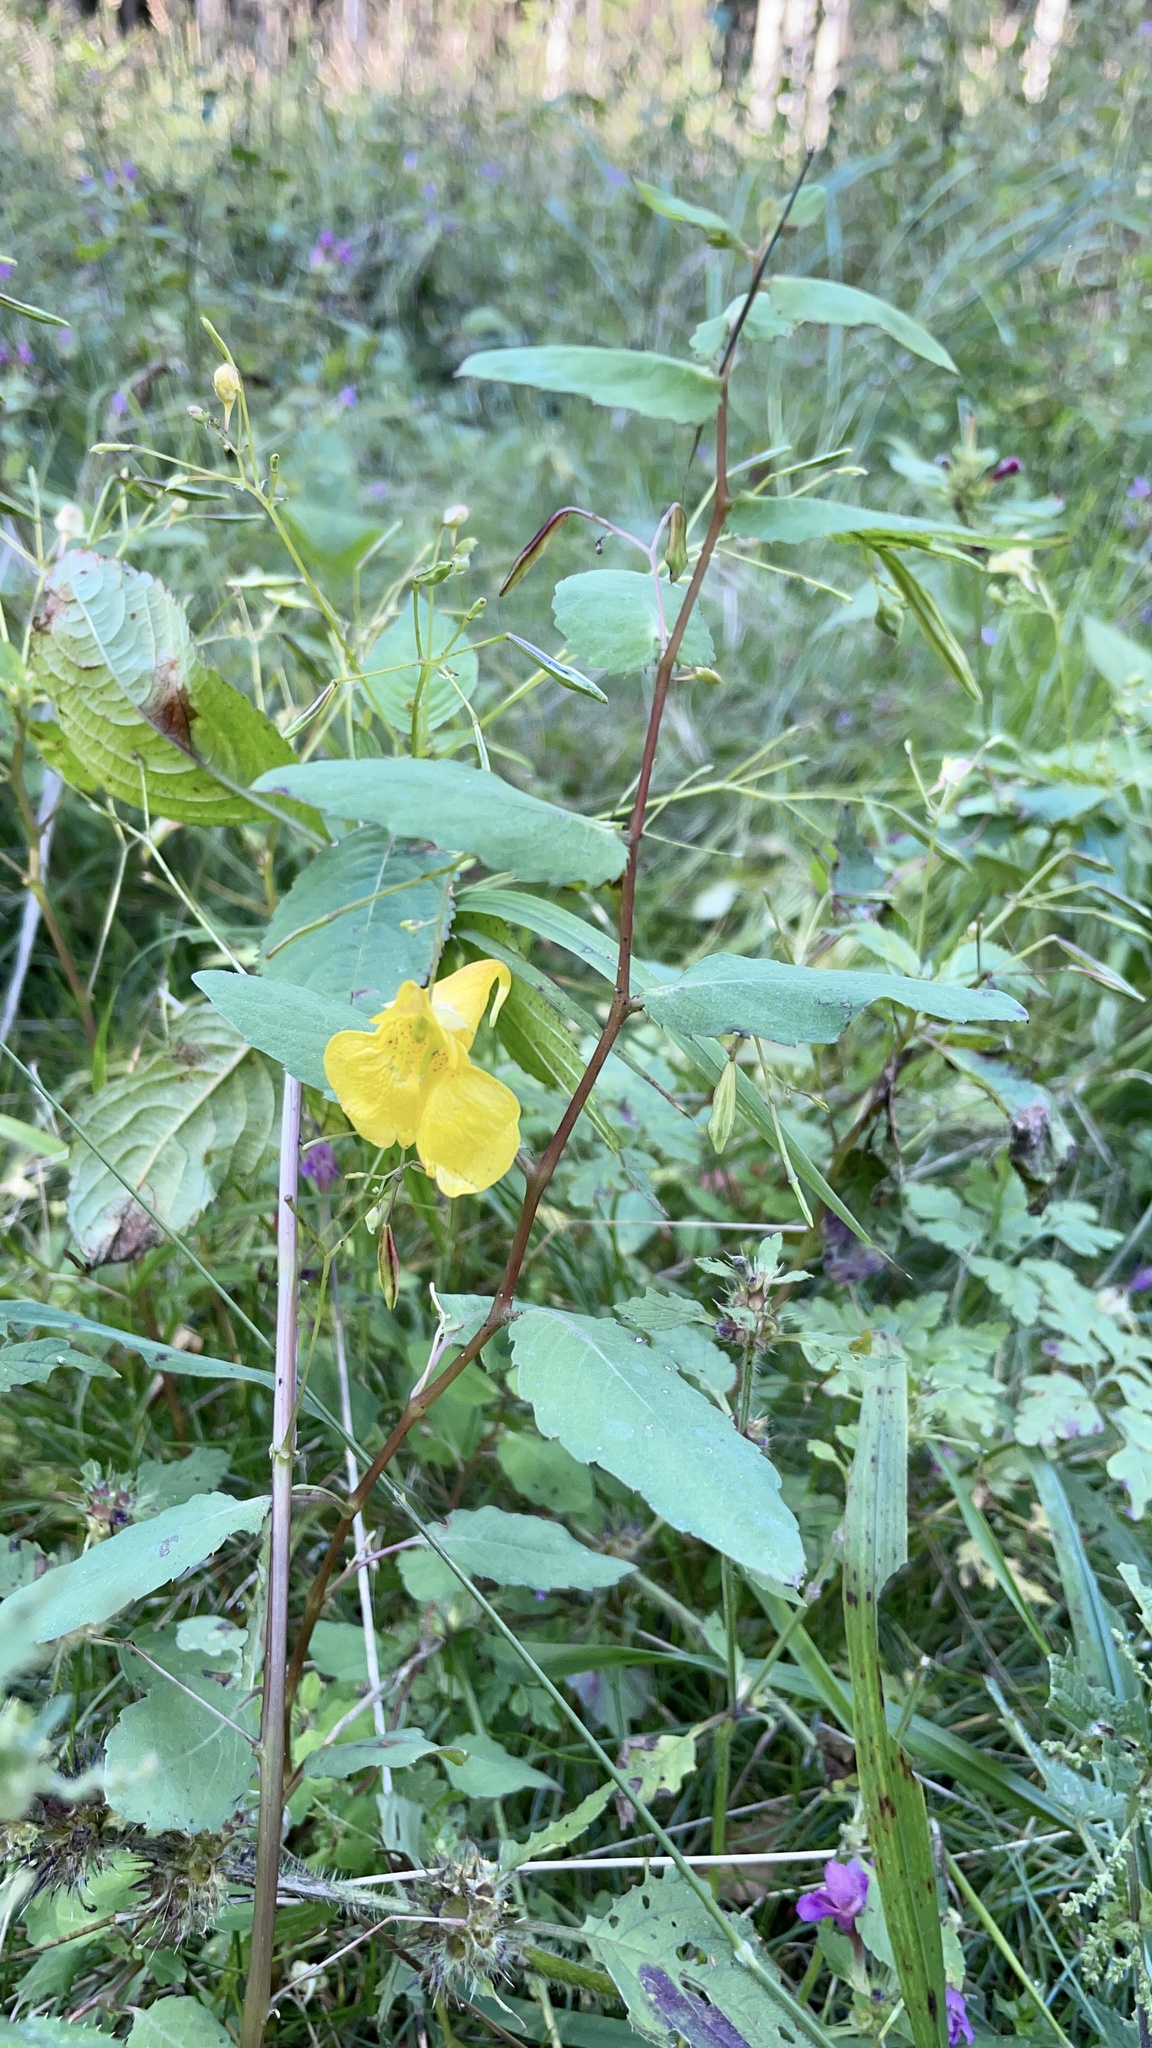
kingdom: Plantae
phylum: Tracheophyta
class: Magnoliopsida
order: Ericales
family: Balsaminaceae
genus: Impatiens
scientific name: Impatiens noli-tangere
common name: Touch-me-not balsam
